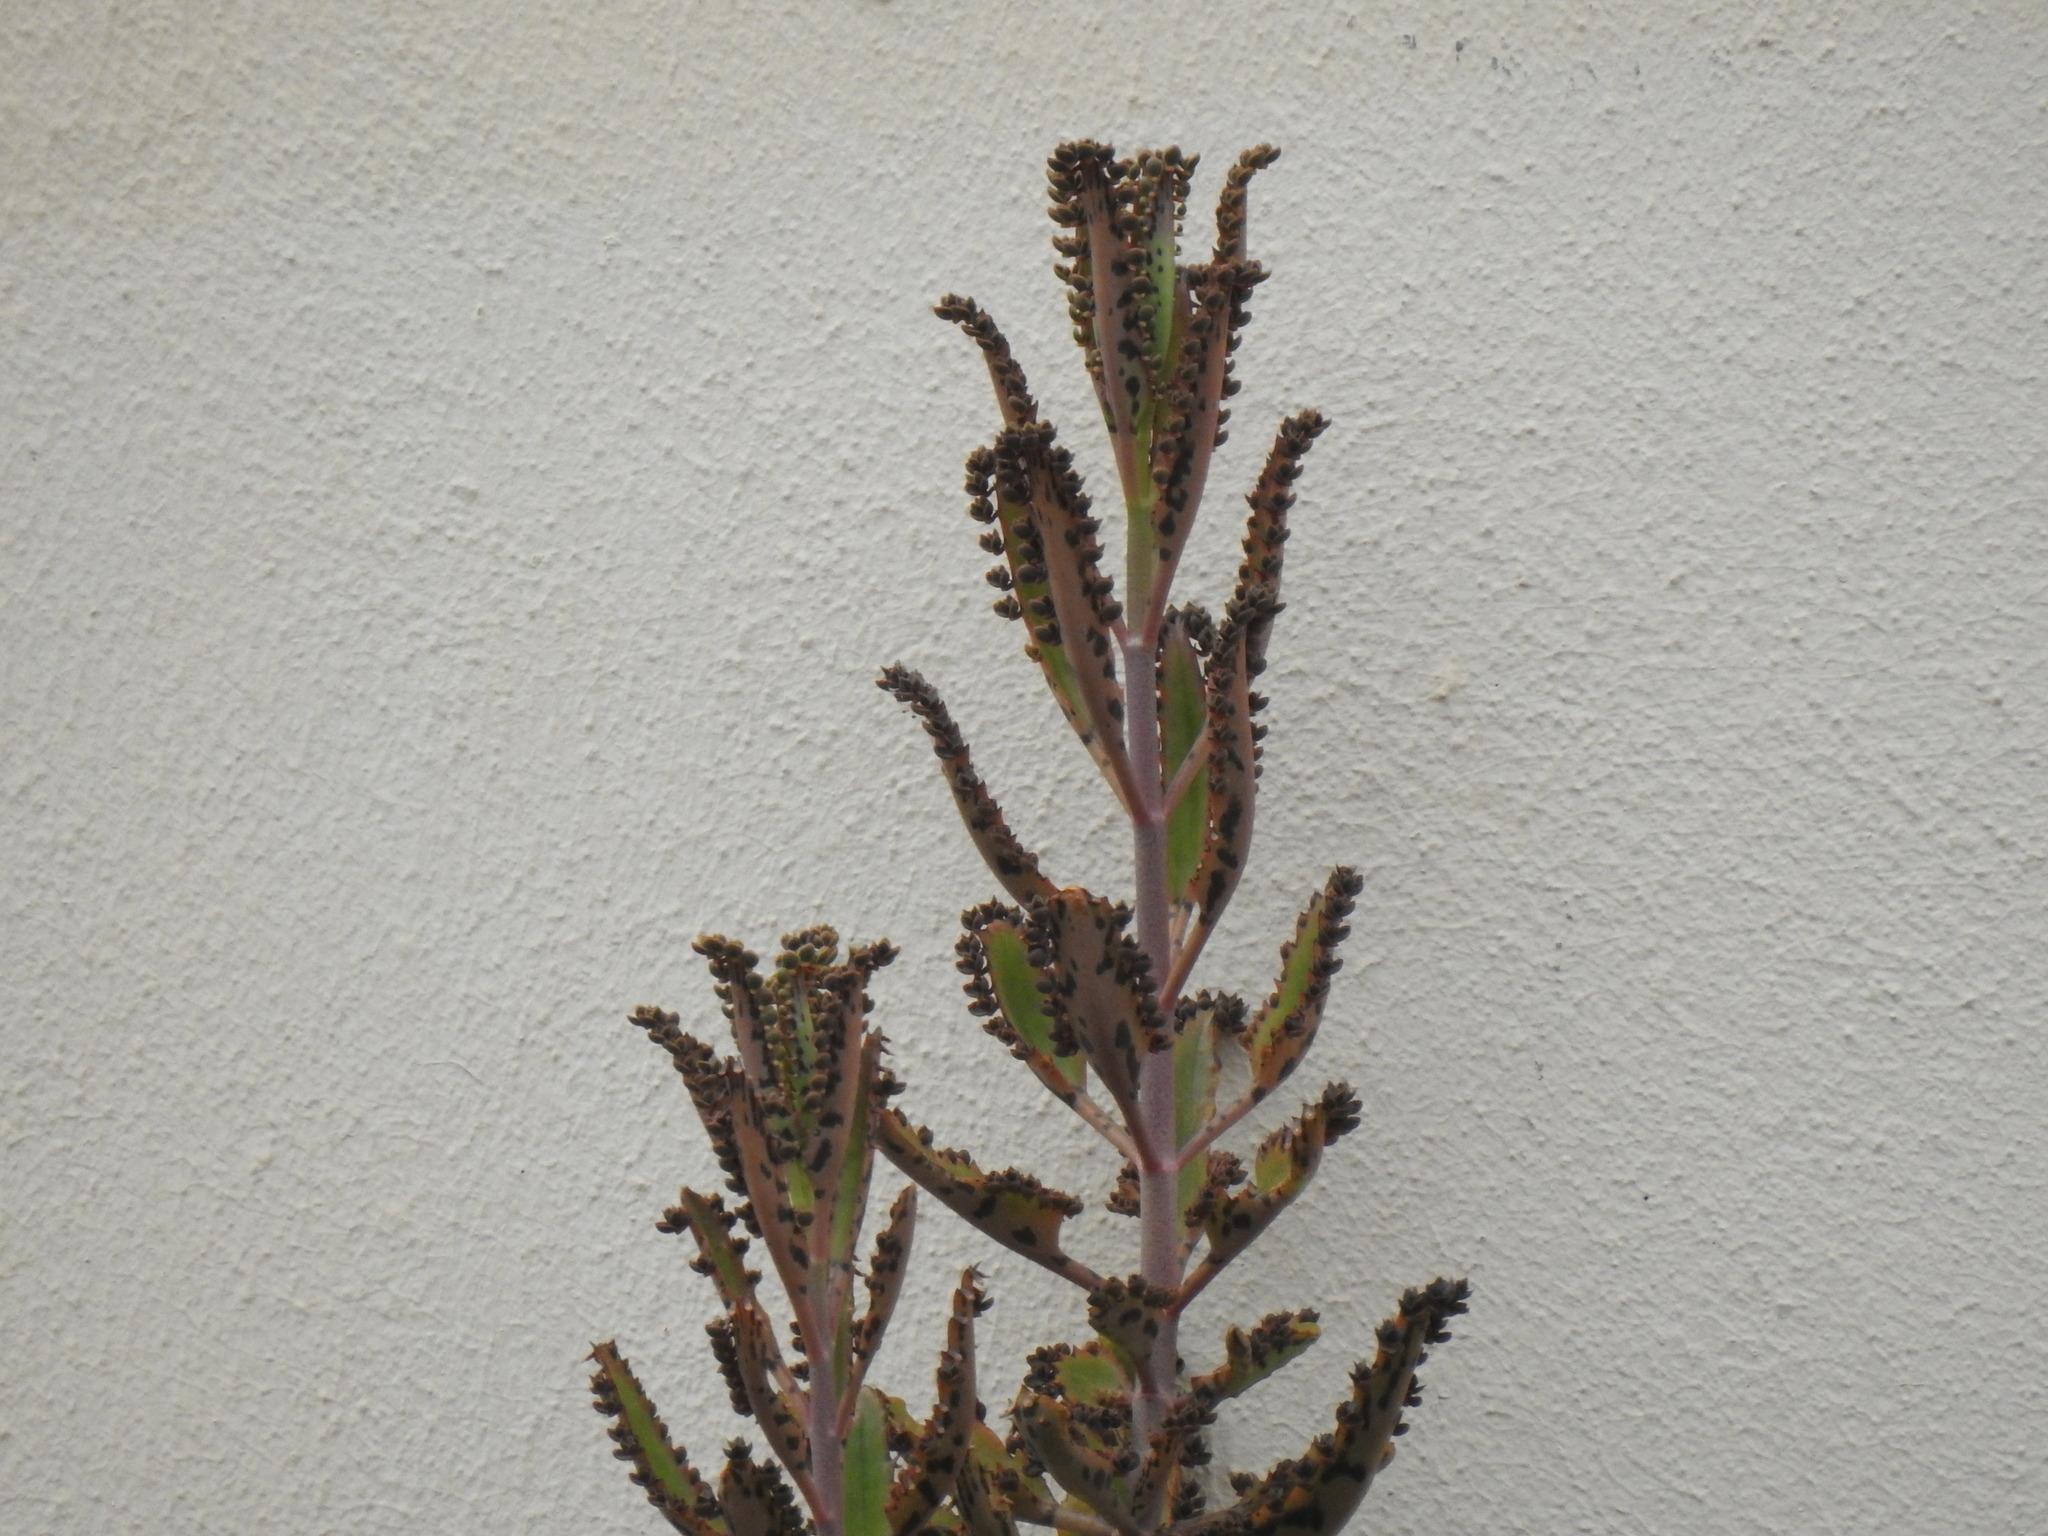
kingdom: Plantae
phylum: Tracheophyta
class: Magnoliopsida
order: Saxifragales
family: Crassulaceae
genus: Kalanchoe
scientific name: Kalanchoe houghtonii
